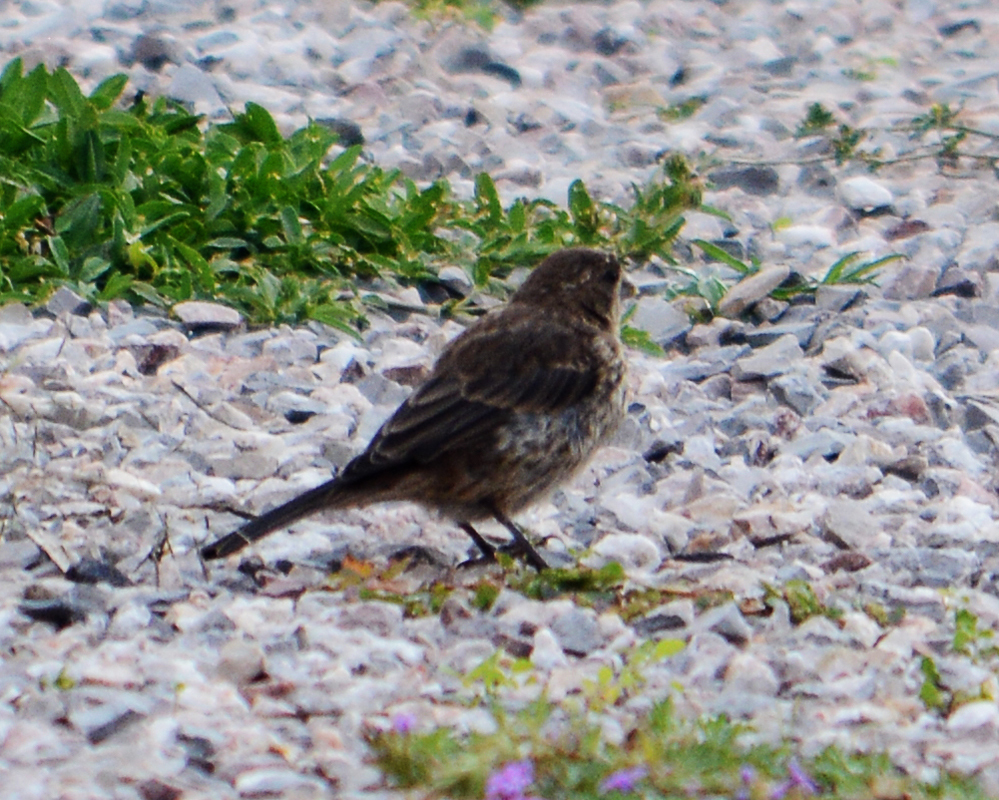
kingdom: Animalia
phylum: Chordata
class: Aves
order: Passeriformes
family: Fringillidae
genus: Haemorhous
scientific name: Haemorhous mexicanus
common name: House finch
